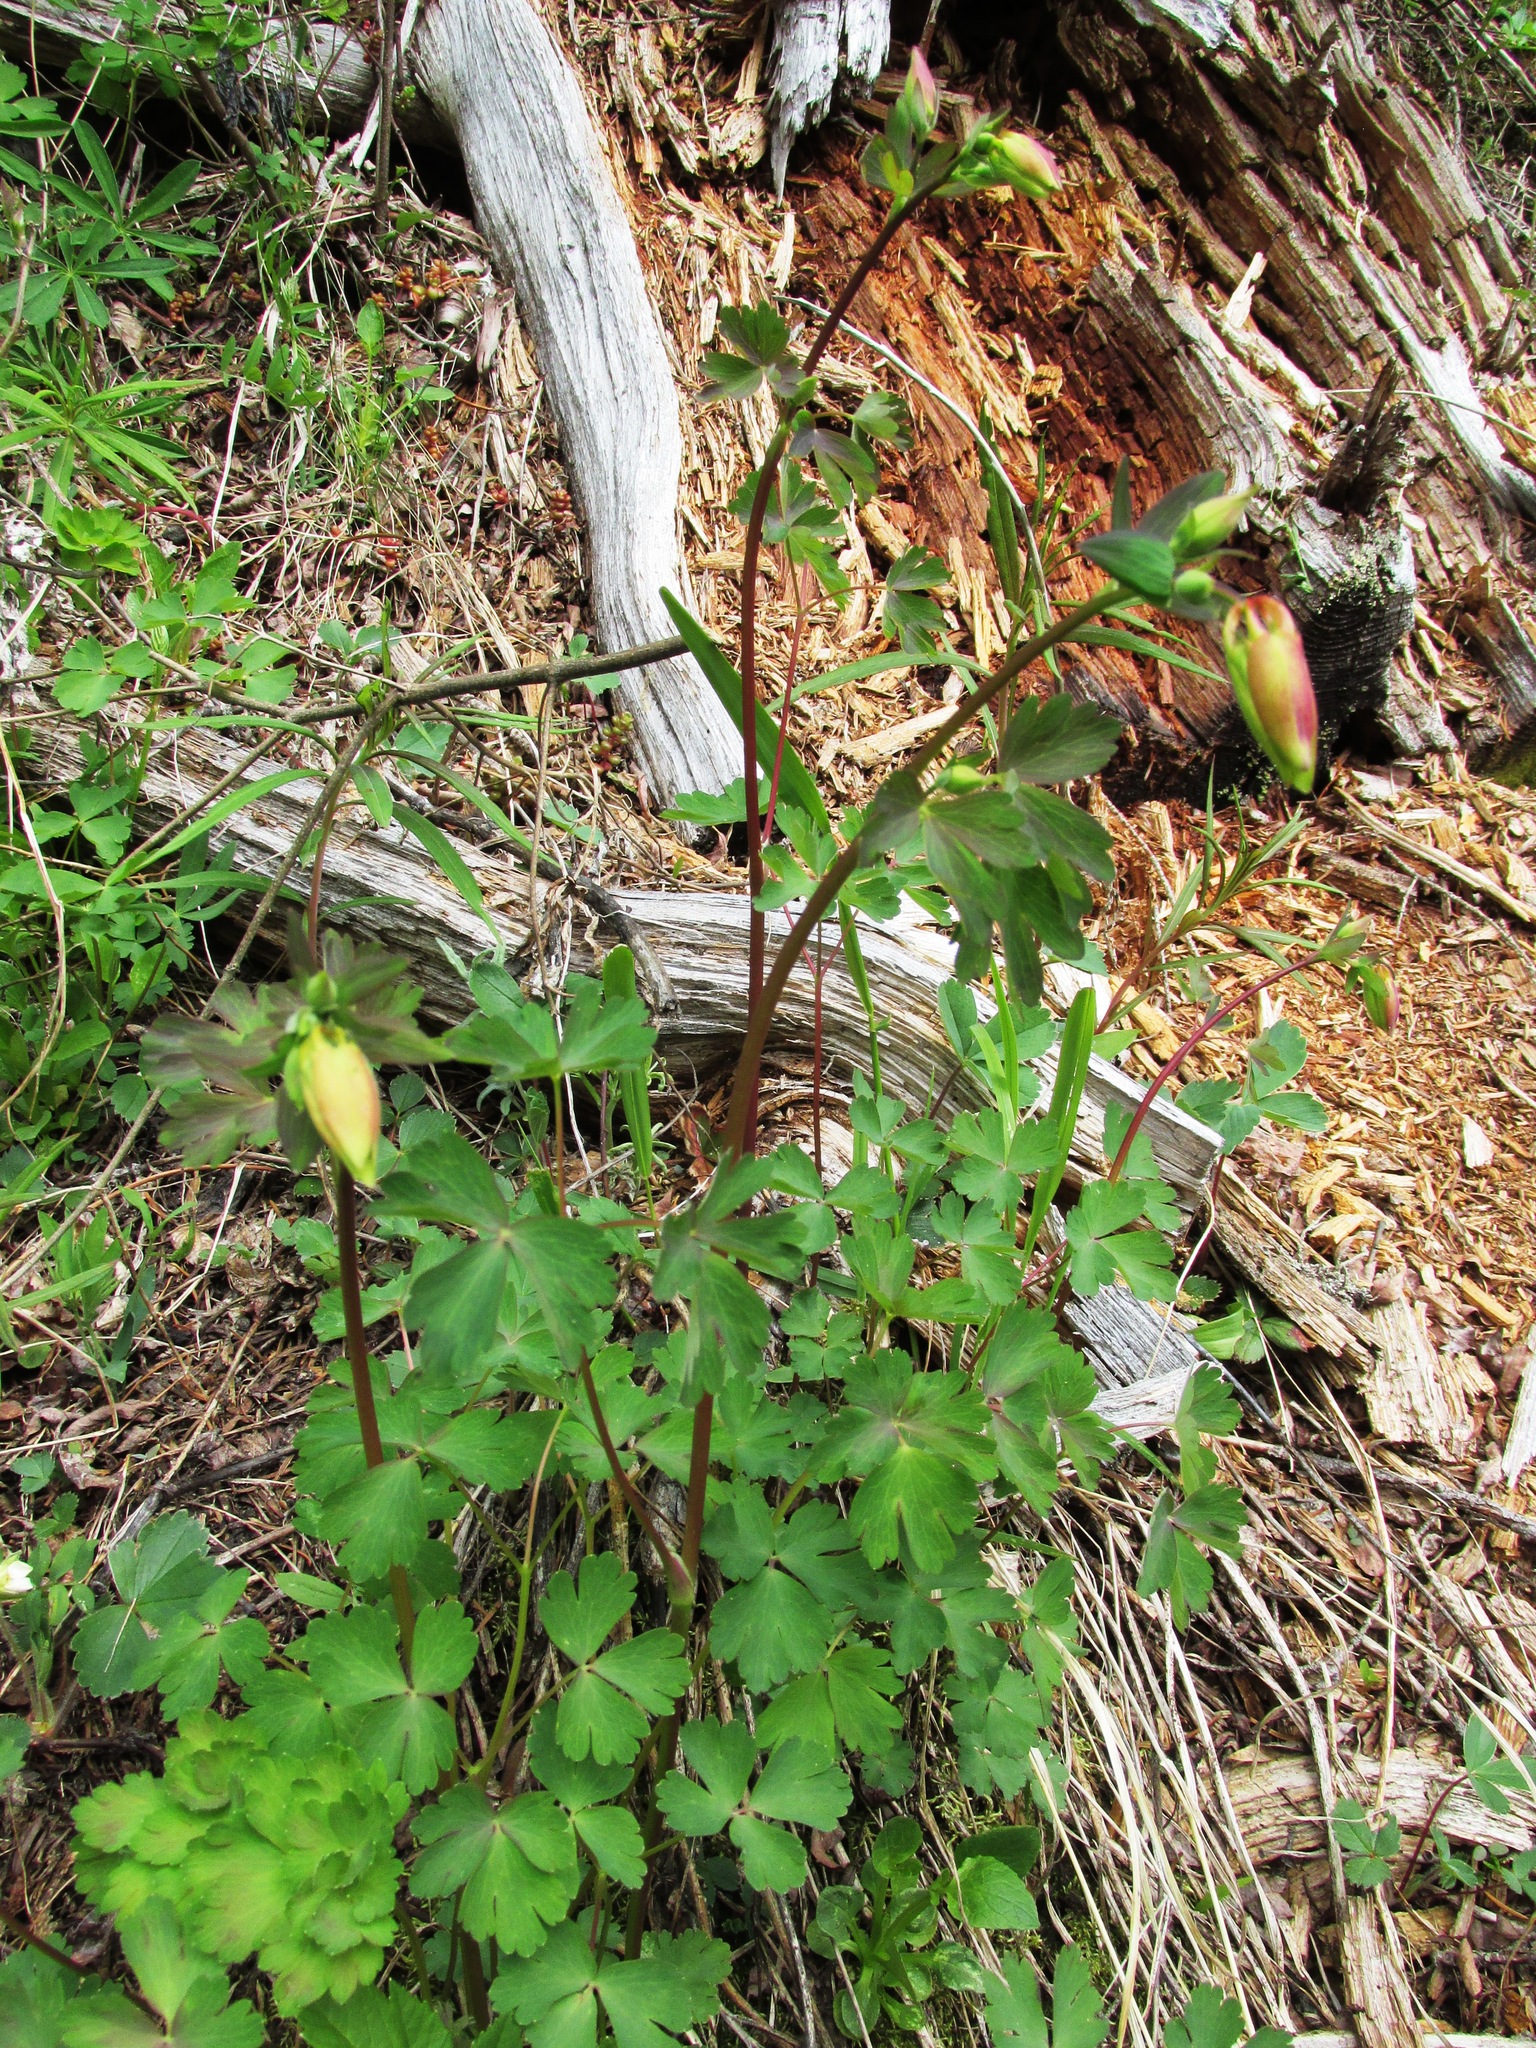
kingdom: Plantae
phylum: Tracheophyta
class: Magnoliopsida
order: Ranunculales
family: Ranunculaceae
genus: Aquilegia
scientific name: Aquilegia formosa
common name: Sitka columbine
